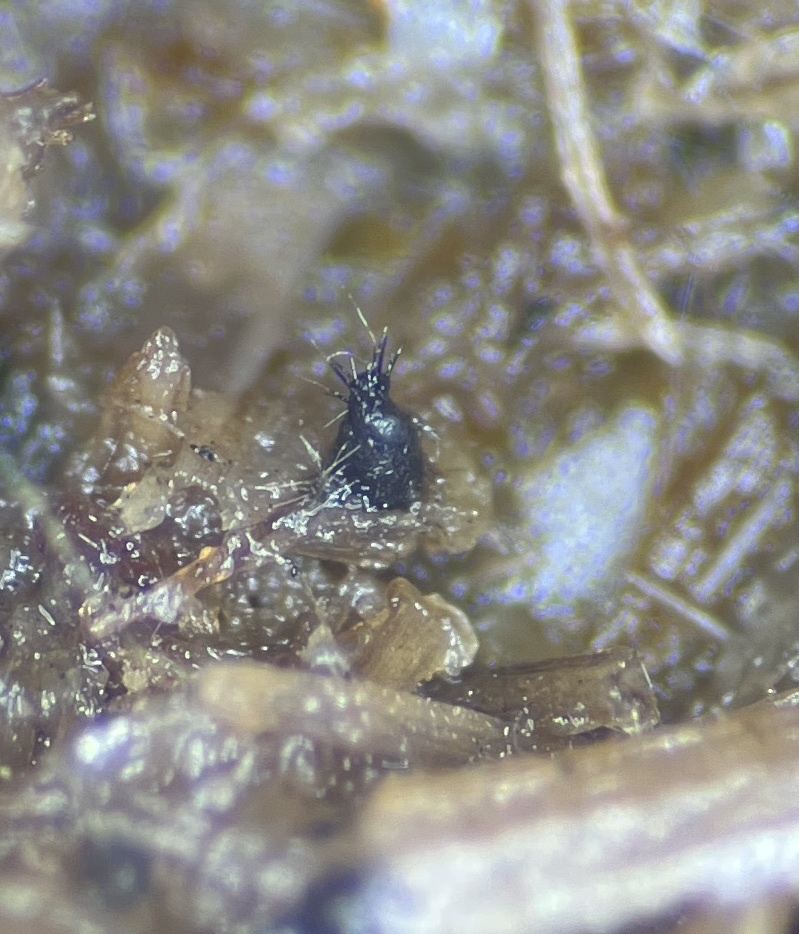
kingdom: Fungi
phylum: Ascomycota
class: Dothideomycetes
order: Phaeotrichales
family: Phaeotrichaceae
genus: Trichodelitschia
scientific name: Trichodelitschia bisporula
